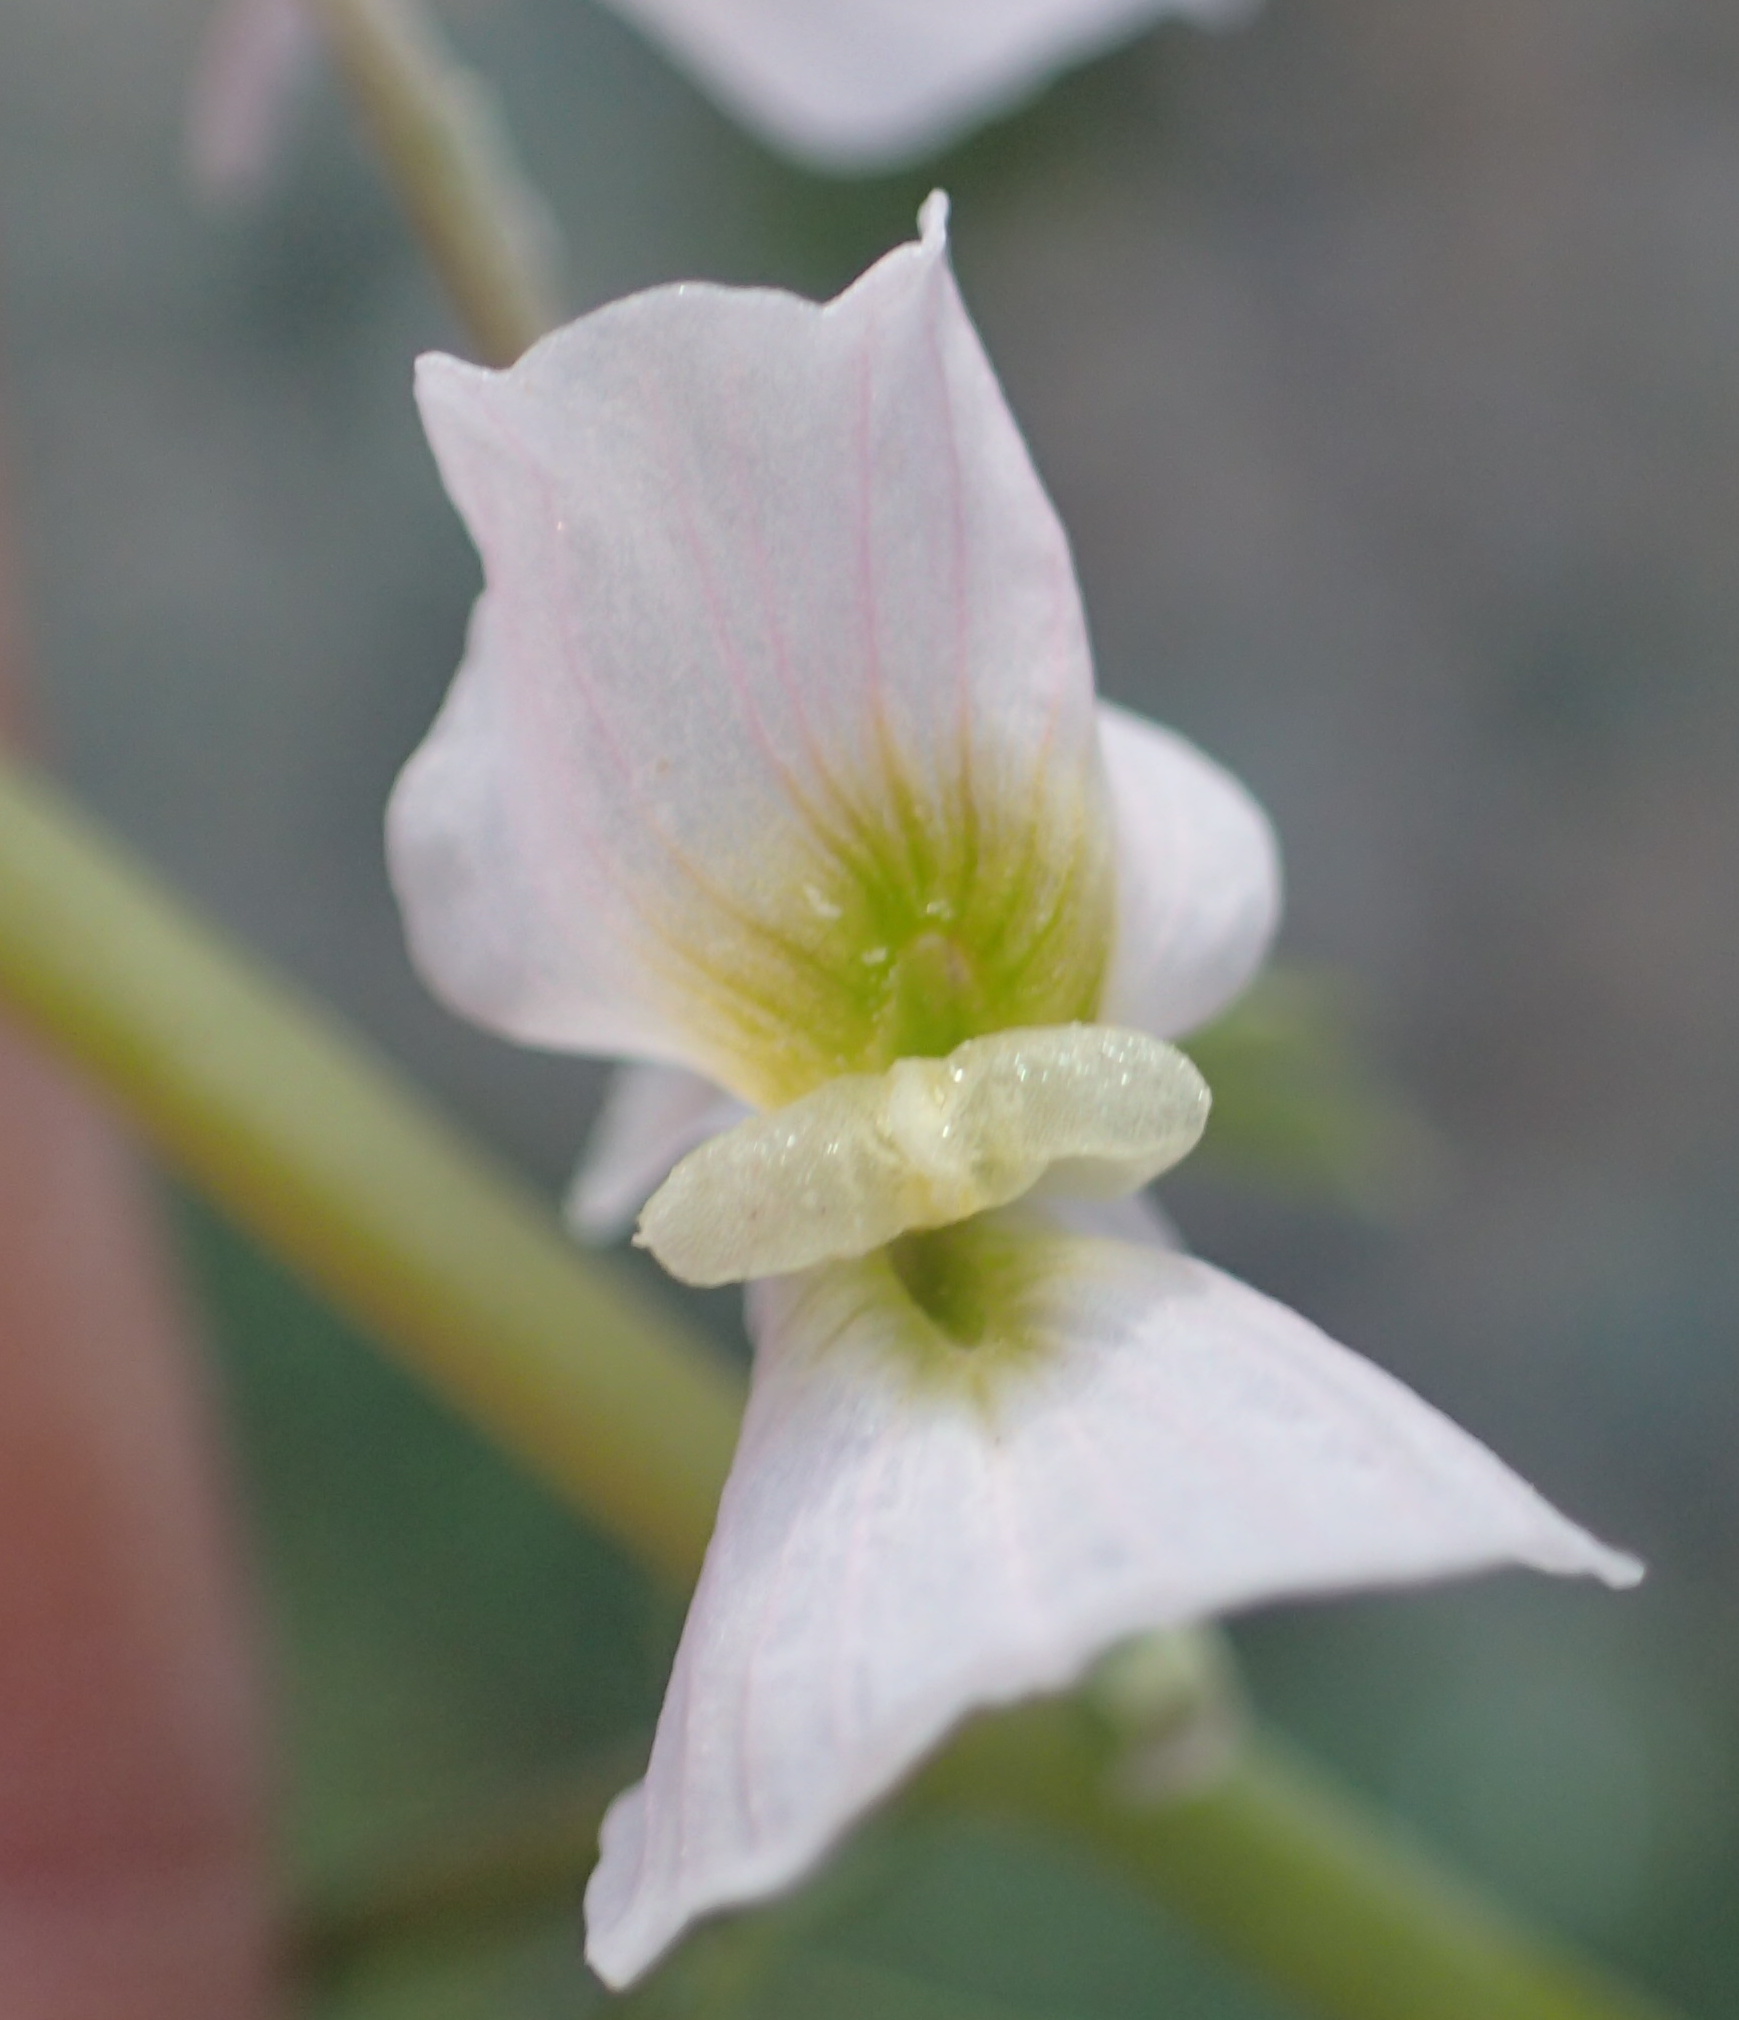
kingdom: Plantae
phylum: Tracheophyta
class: Magnoliopsida
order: Ranunculales
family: Papaveraceae
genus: Cysticapnos
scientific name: Cysticapnos vesicaria
